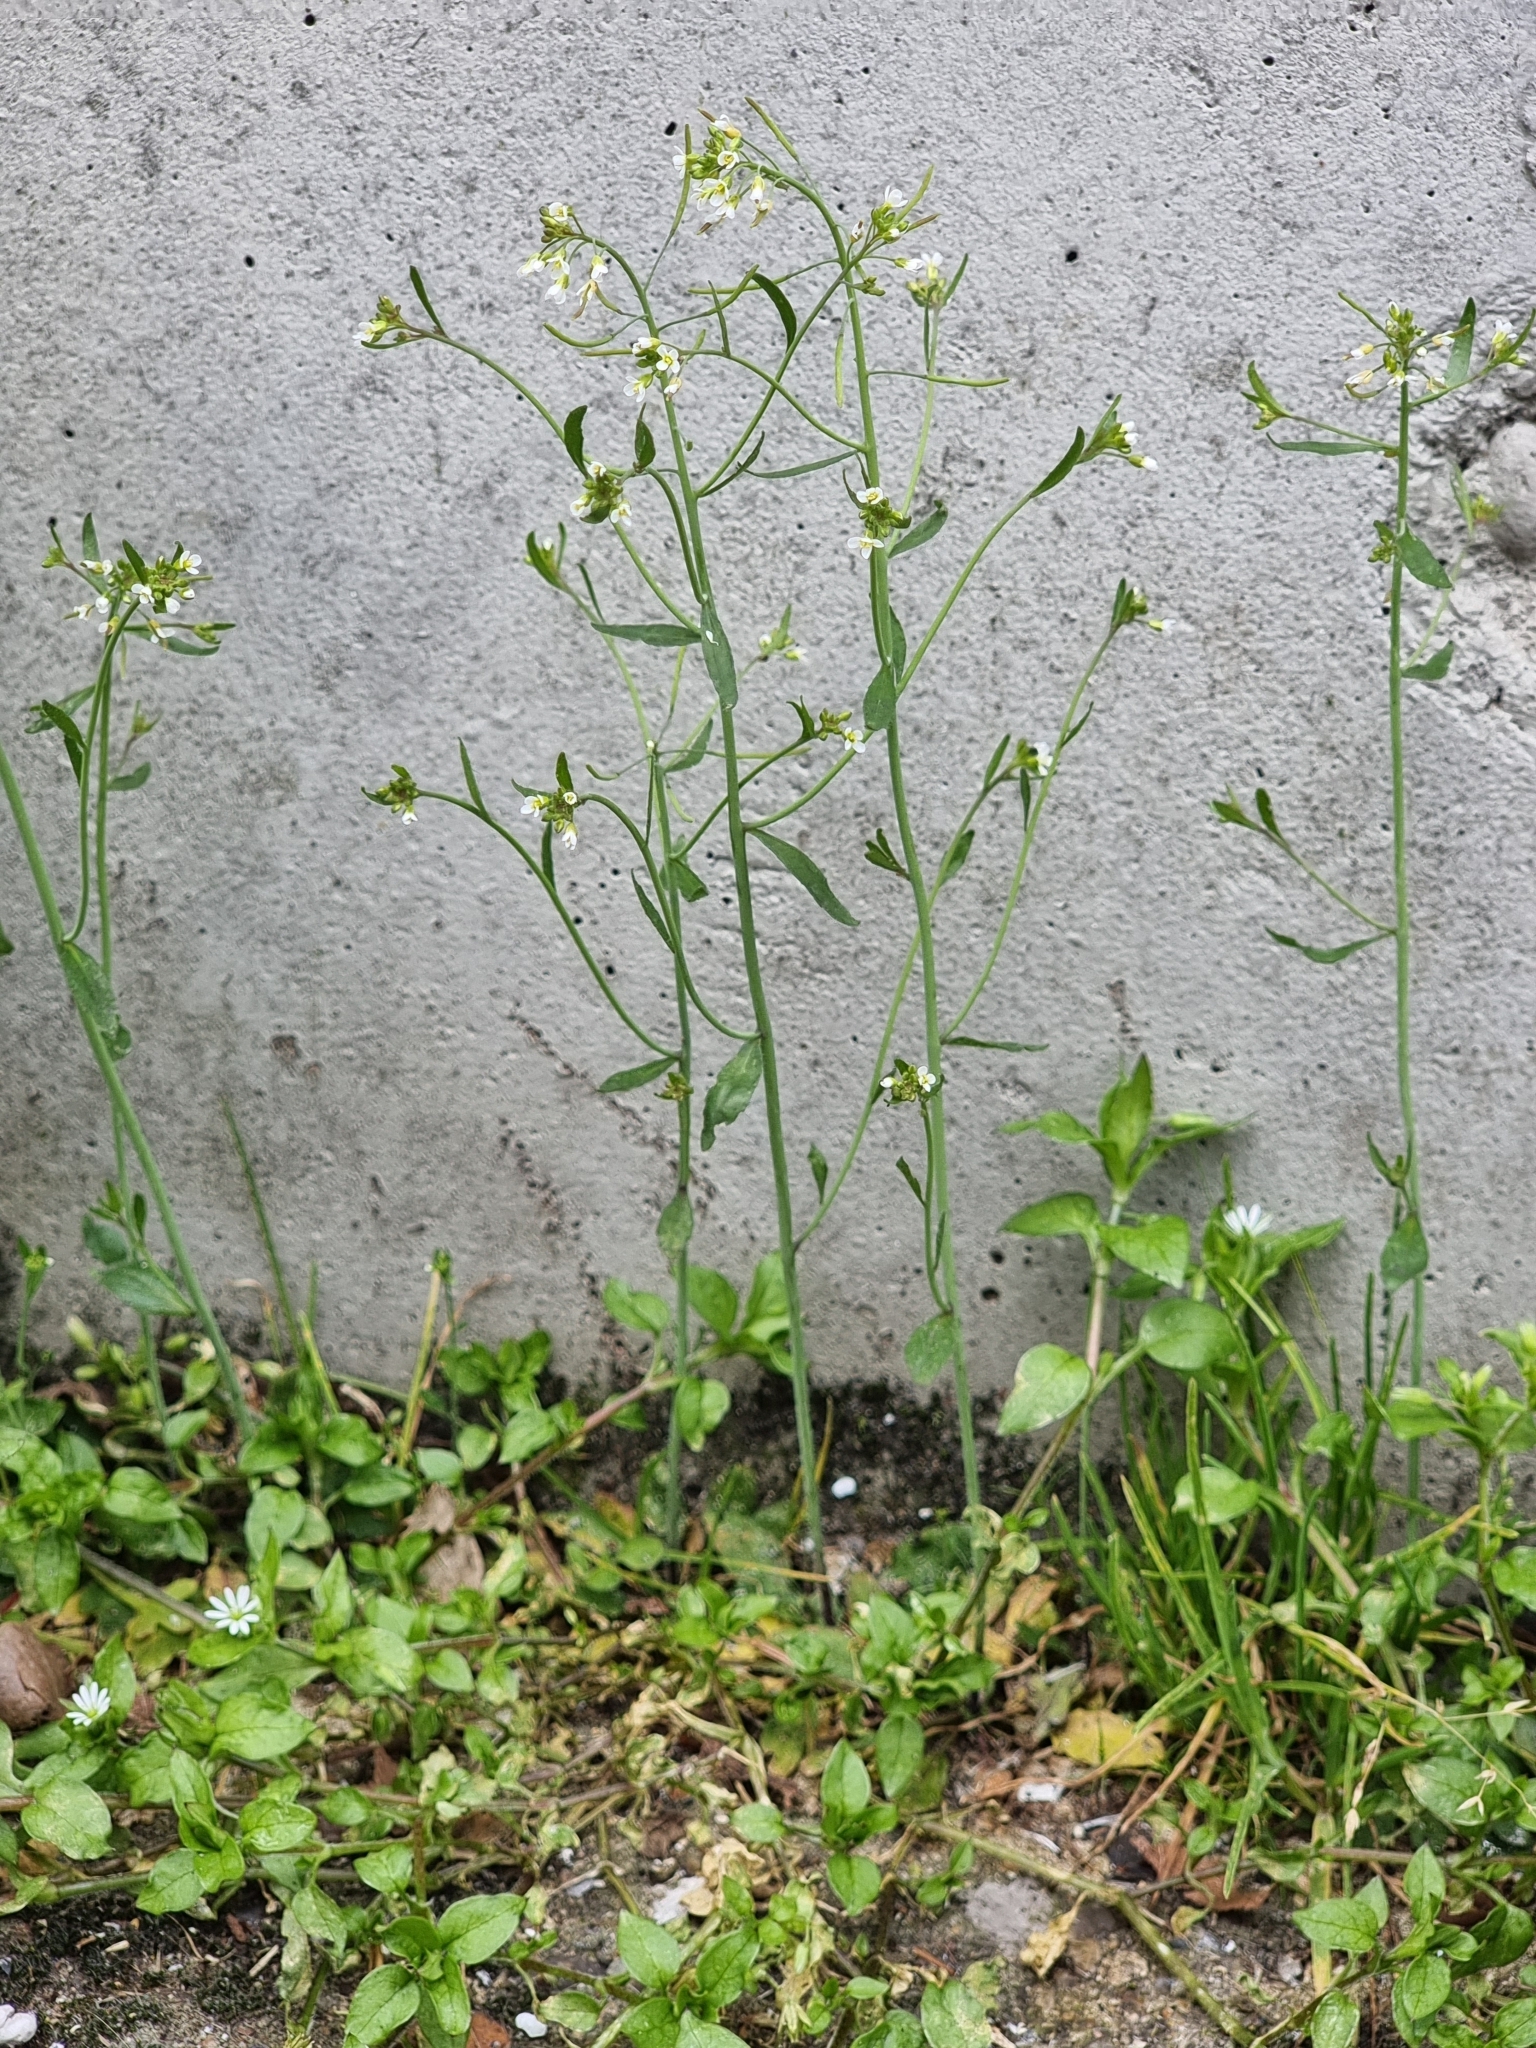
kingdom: Plantae
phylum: Tracheophyta
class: Magnoliopsida
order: Brassicales
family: Brassicaceae
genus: Arabidopsis
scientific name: Arabidopsis thaliana
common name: Thale cress
